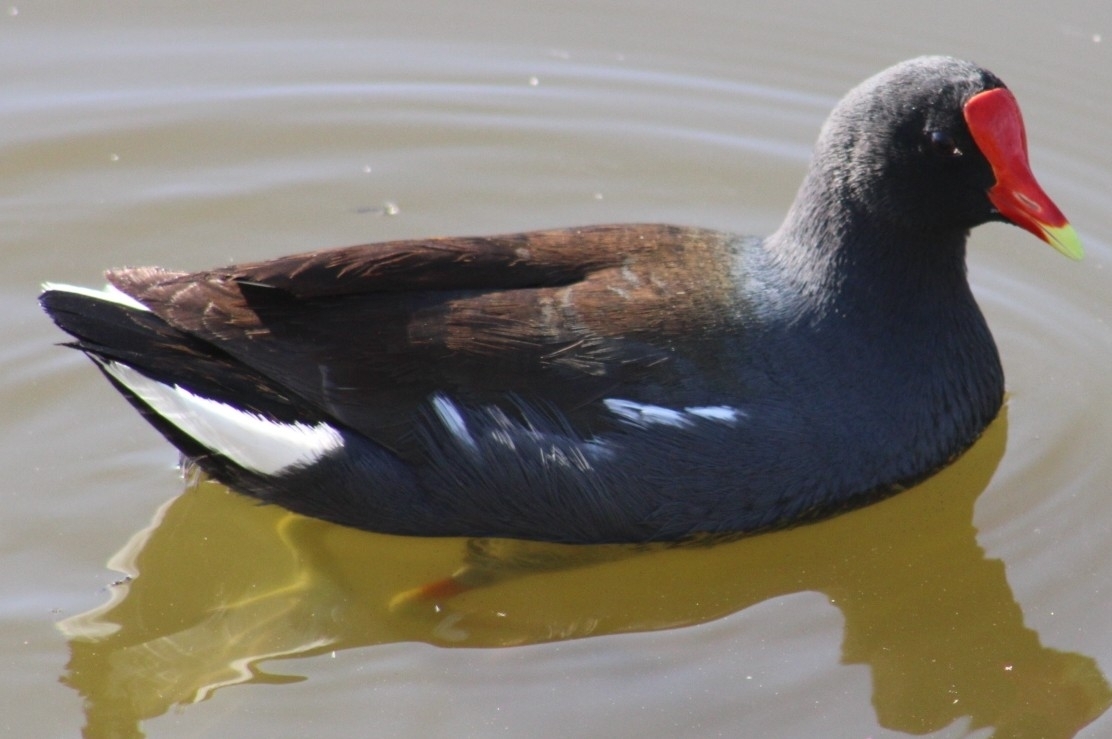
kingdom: Animalia
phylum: Chordata
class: Aves
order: Gruiformes
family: Rallidae
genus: Gallinula
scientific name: Gallinula chloropus
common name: Common moorhen
